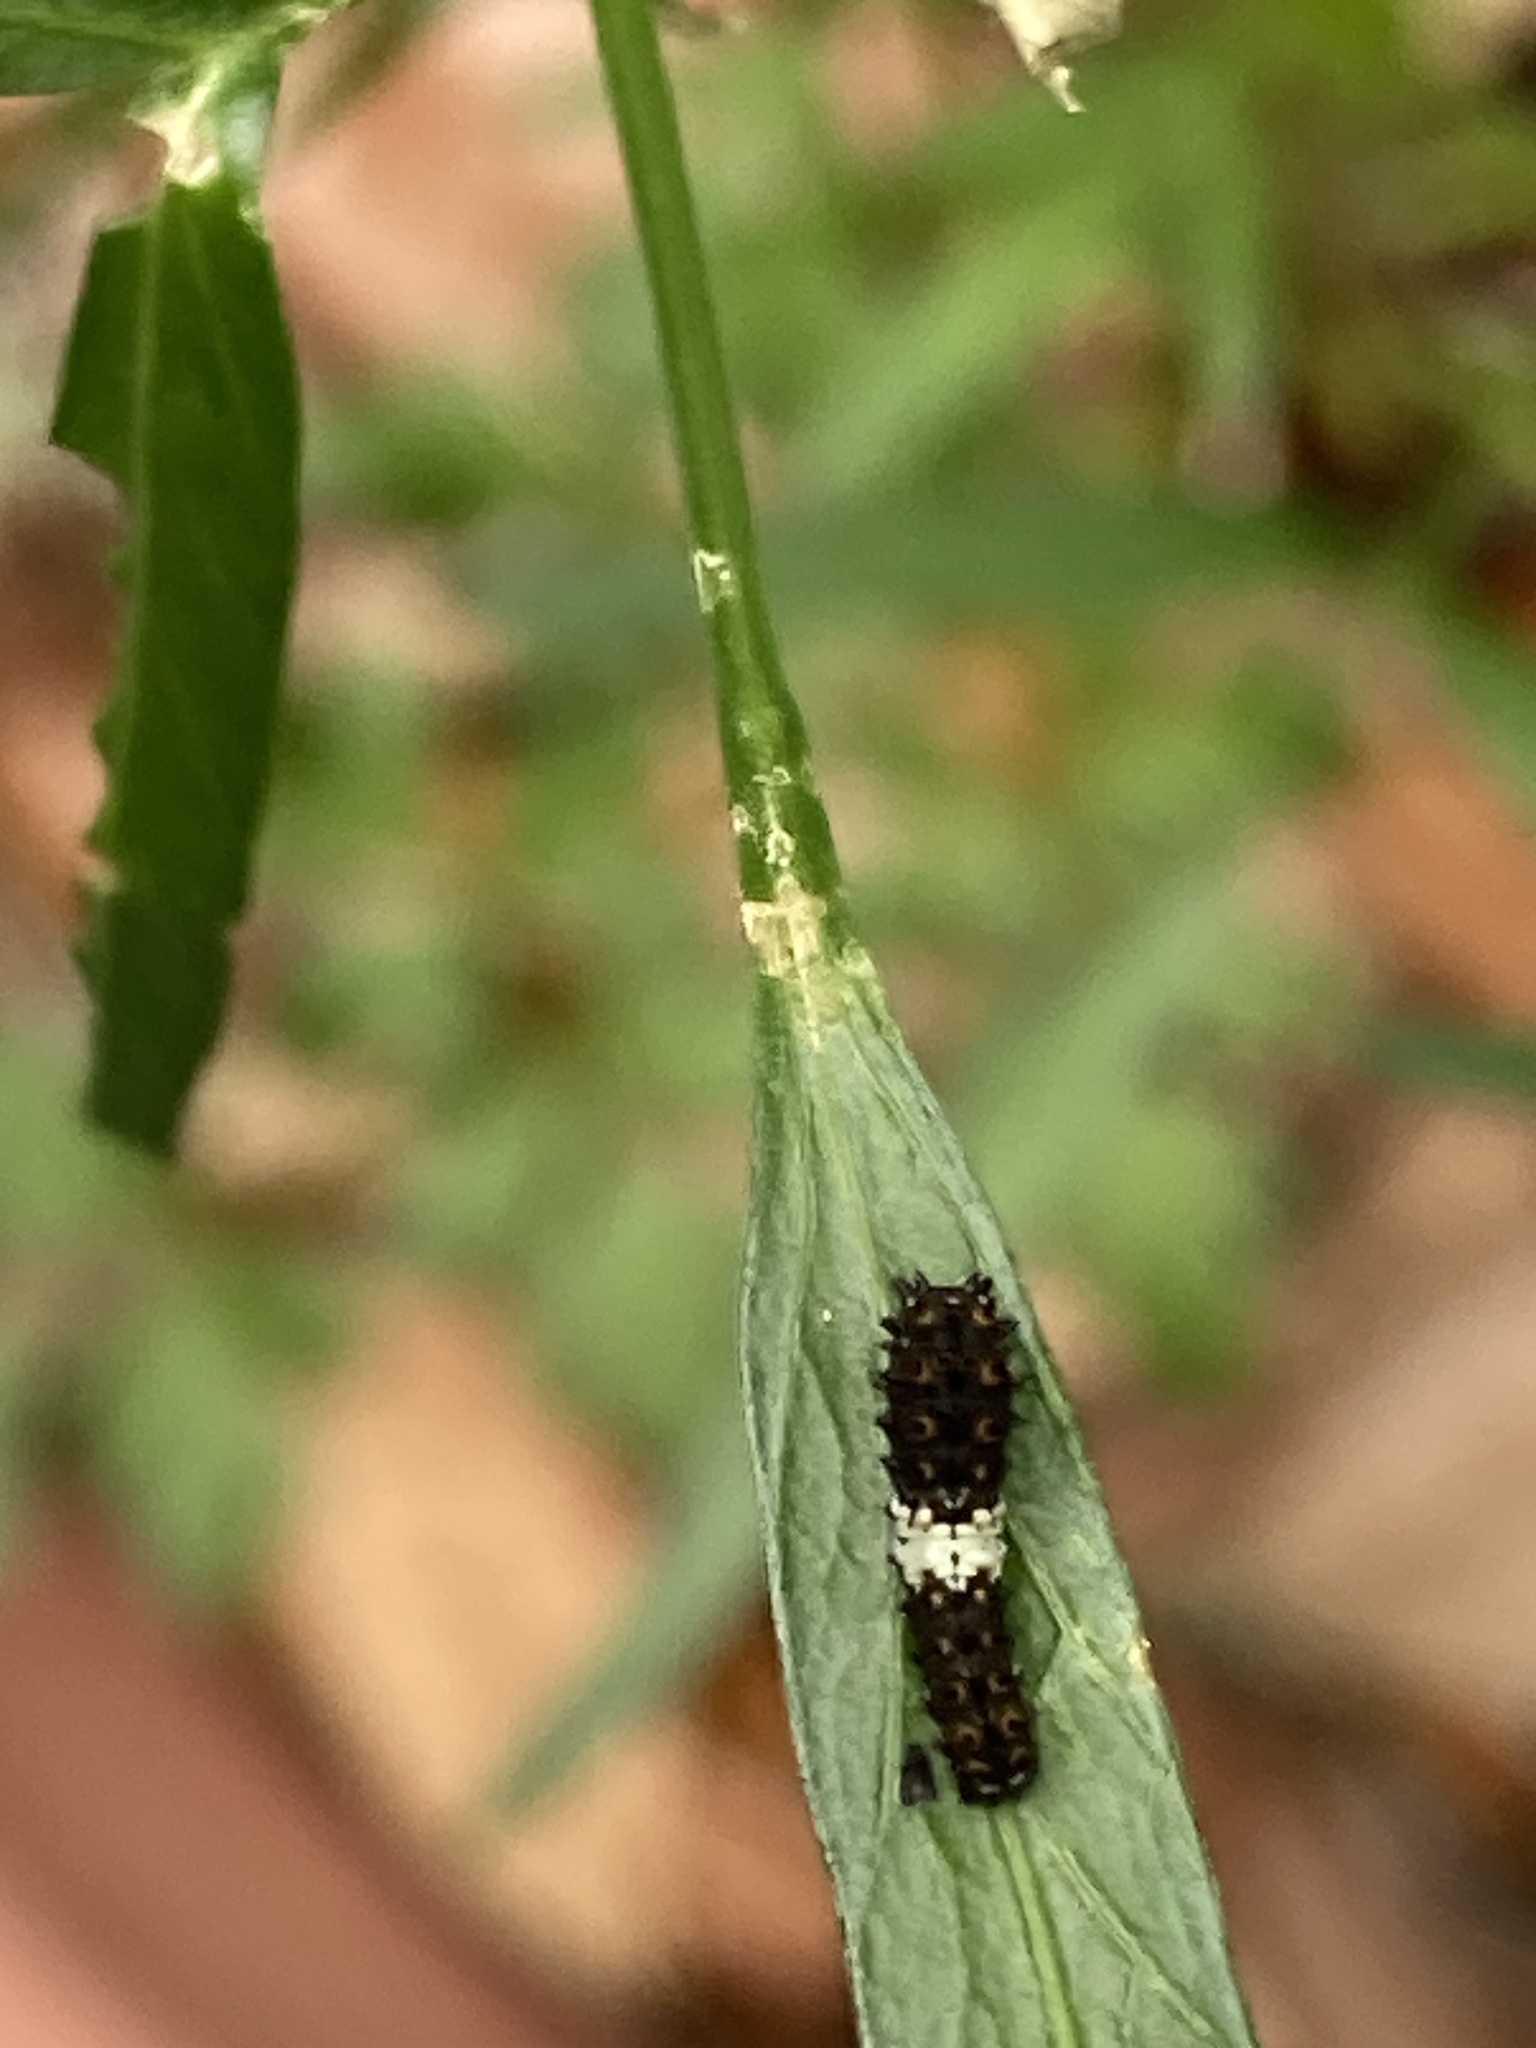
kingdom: Animalia
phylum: Arthropoda
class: Insecta
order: Lepidoptera
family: Papilionidae
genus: Papilio
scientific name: Papilio polyxenes
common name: Black swallowtail
